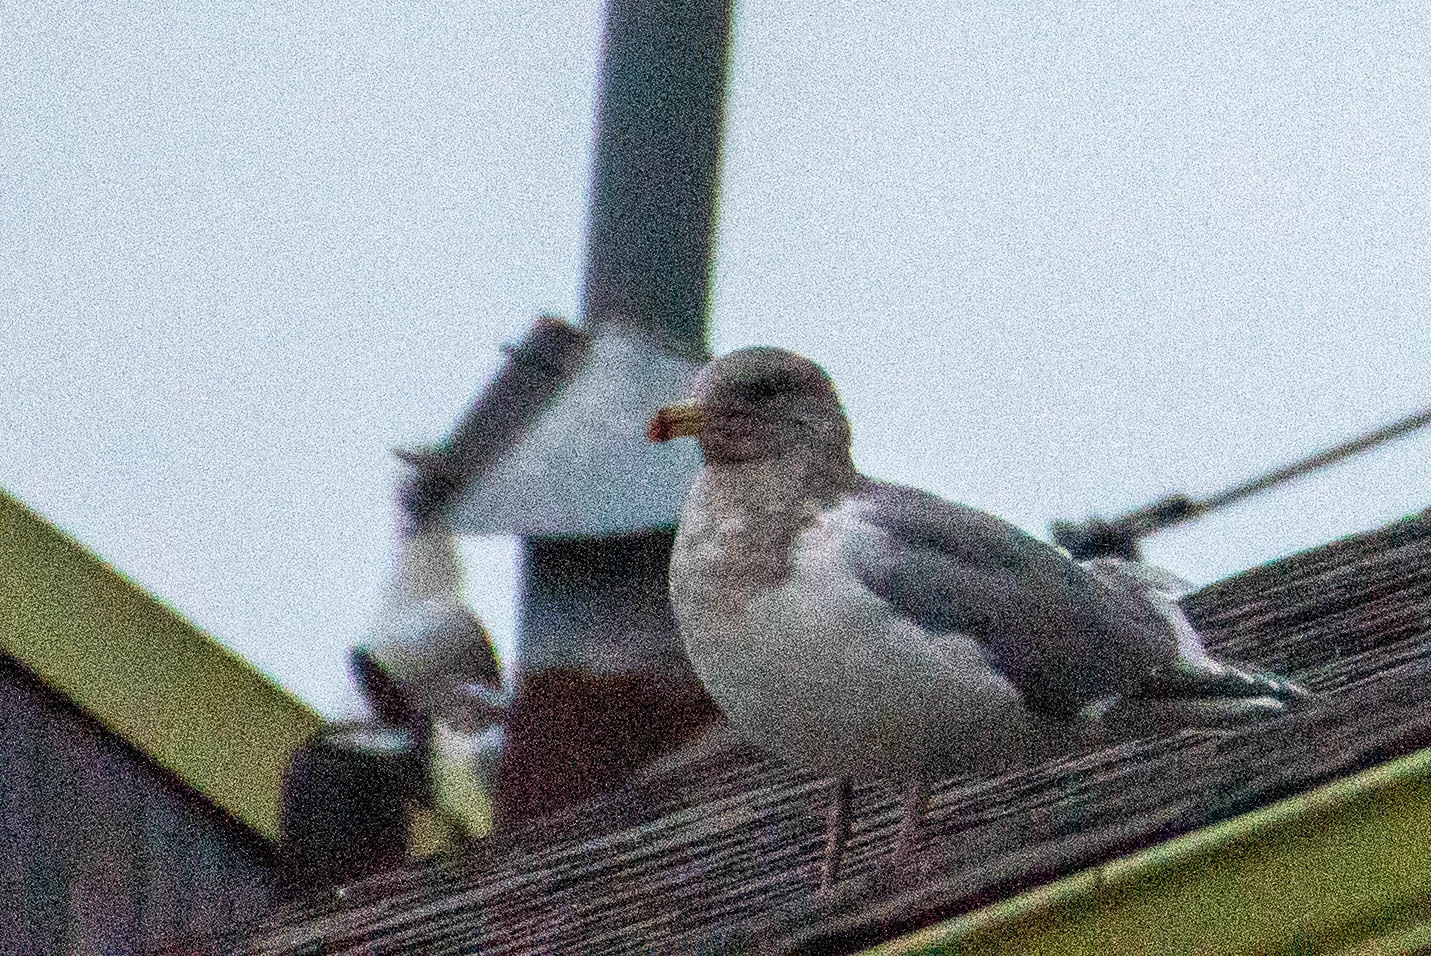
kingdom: Animalia
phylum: Chordata
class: Aves
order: Charadriiformes
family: Laridae
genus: Larus
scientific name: Larus
